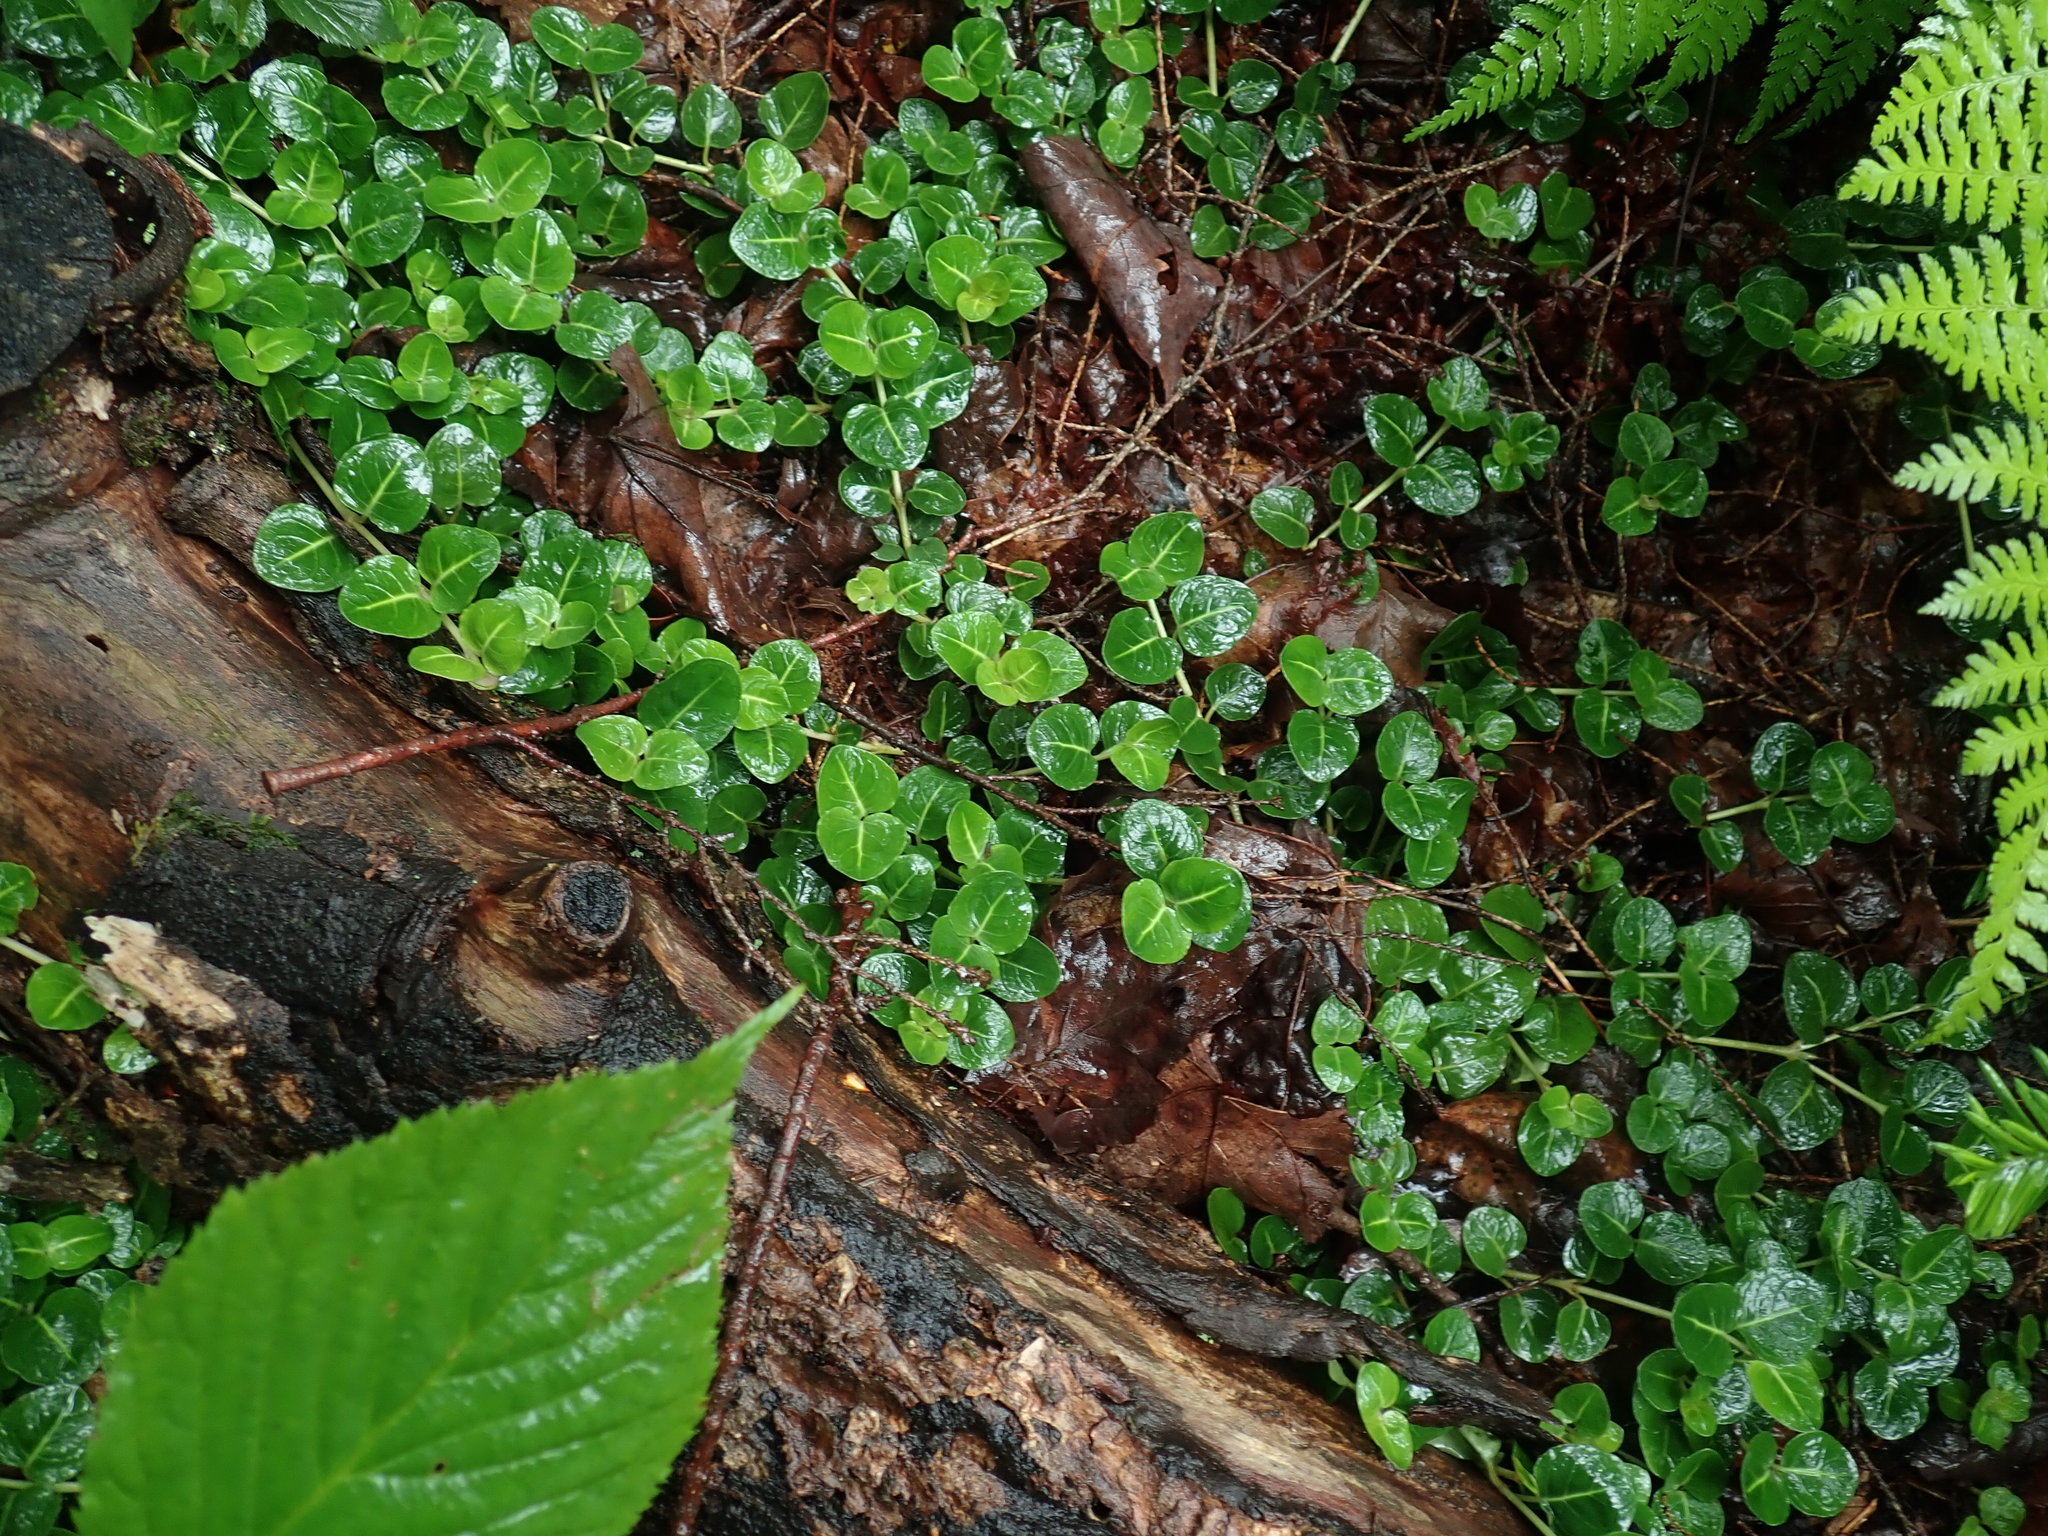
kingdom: Plantae
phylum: Tracheophyta
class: Magnoliopsida
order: Gentianales
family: Rubiaceae
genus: Mitchella
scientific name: Mitchella repens
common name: Partridge-berry
